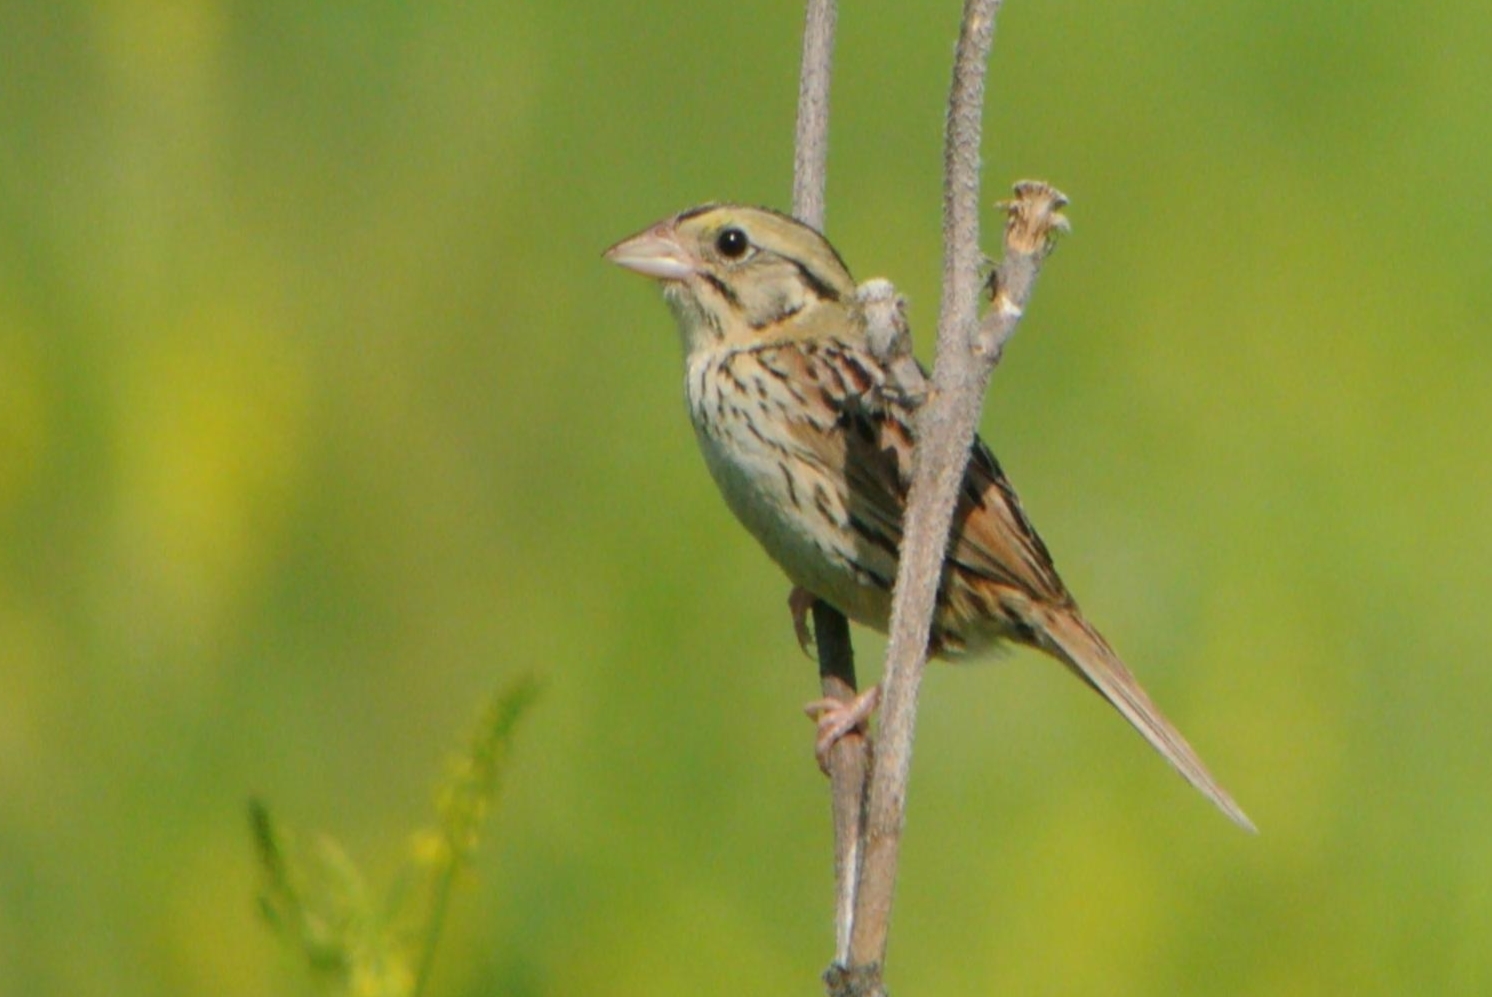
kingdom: Animalia
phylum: Chordata
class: Aves
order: Passeriformes
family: Passerellidae
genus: Centronyx
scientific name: Centronyx henslowii
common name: Henslow's sparrow
